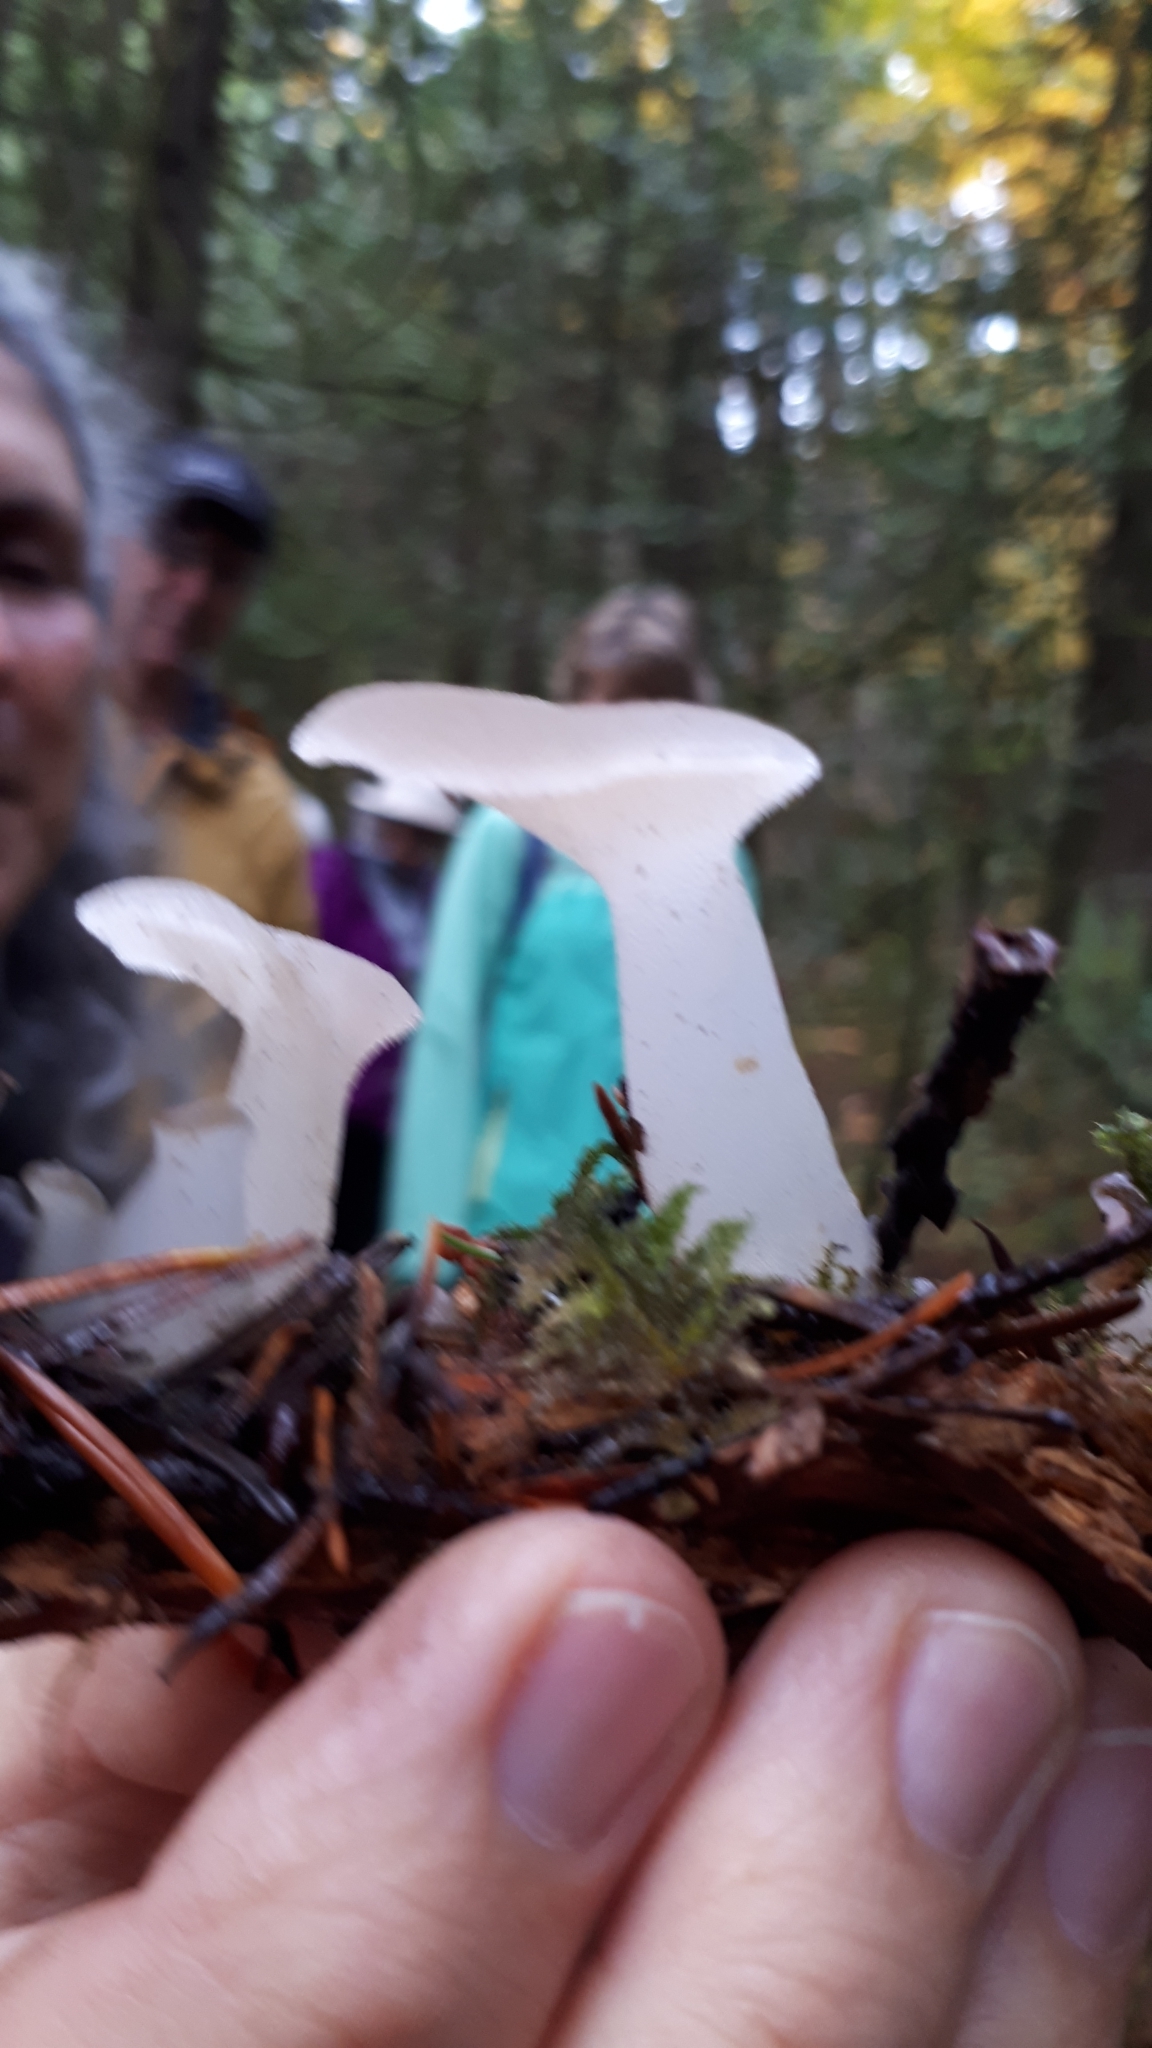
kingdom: Fungi
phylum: Basidiomycota
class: Agaricomycetes
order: Auriculariales
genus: Pseudohydnum
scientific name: Pseudohydnum gelatinosum
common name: Jelly tongue
